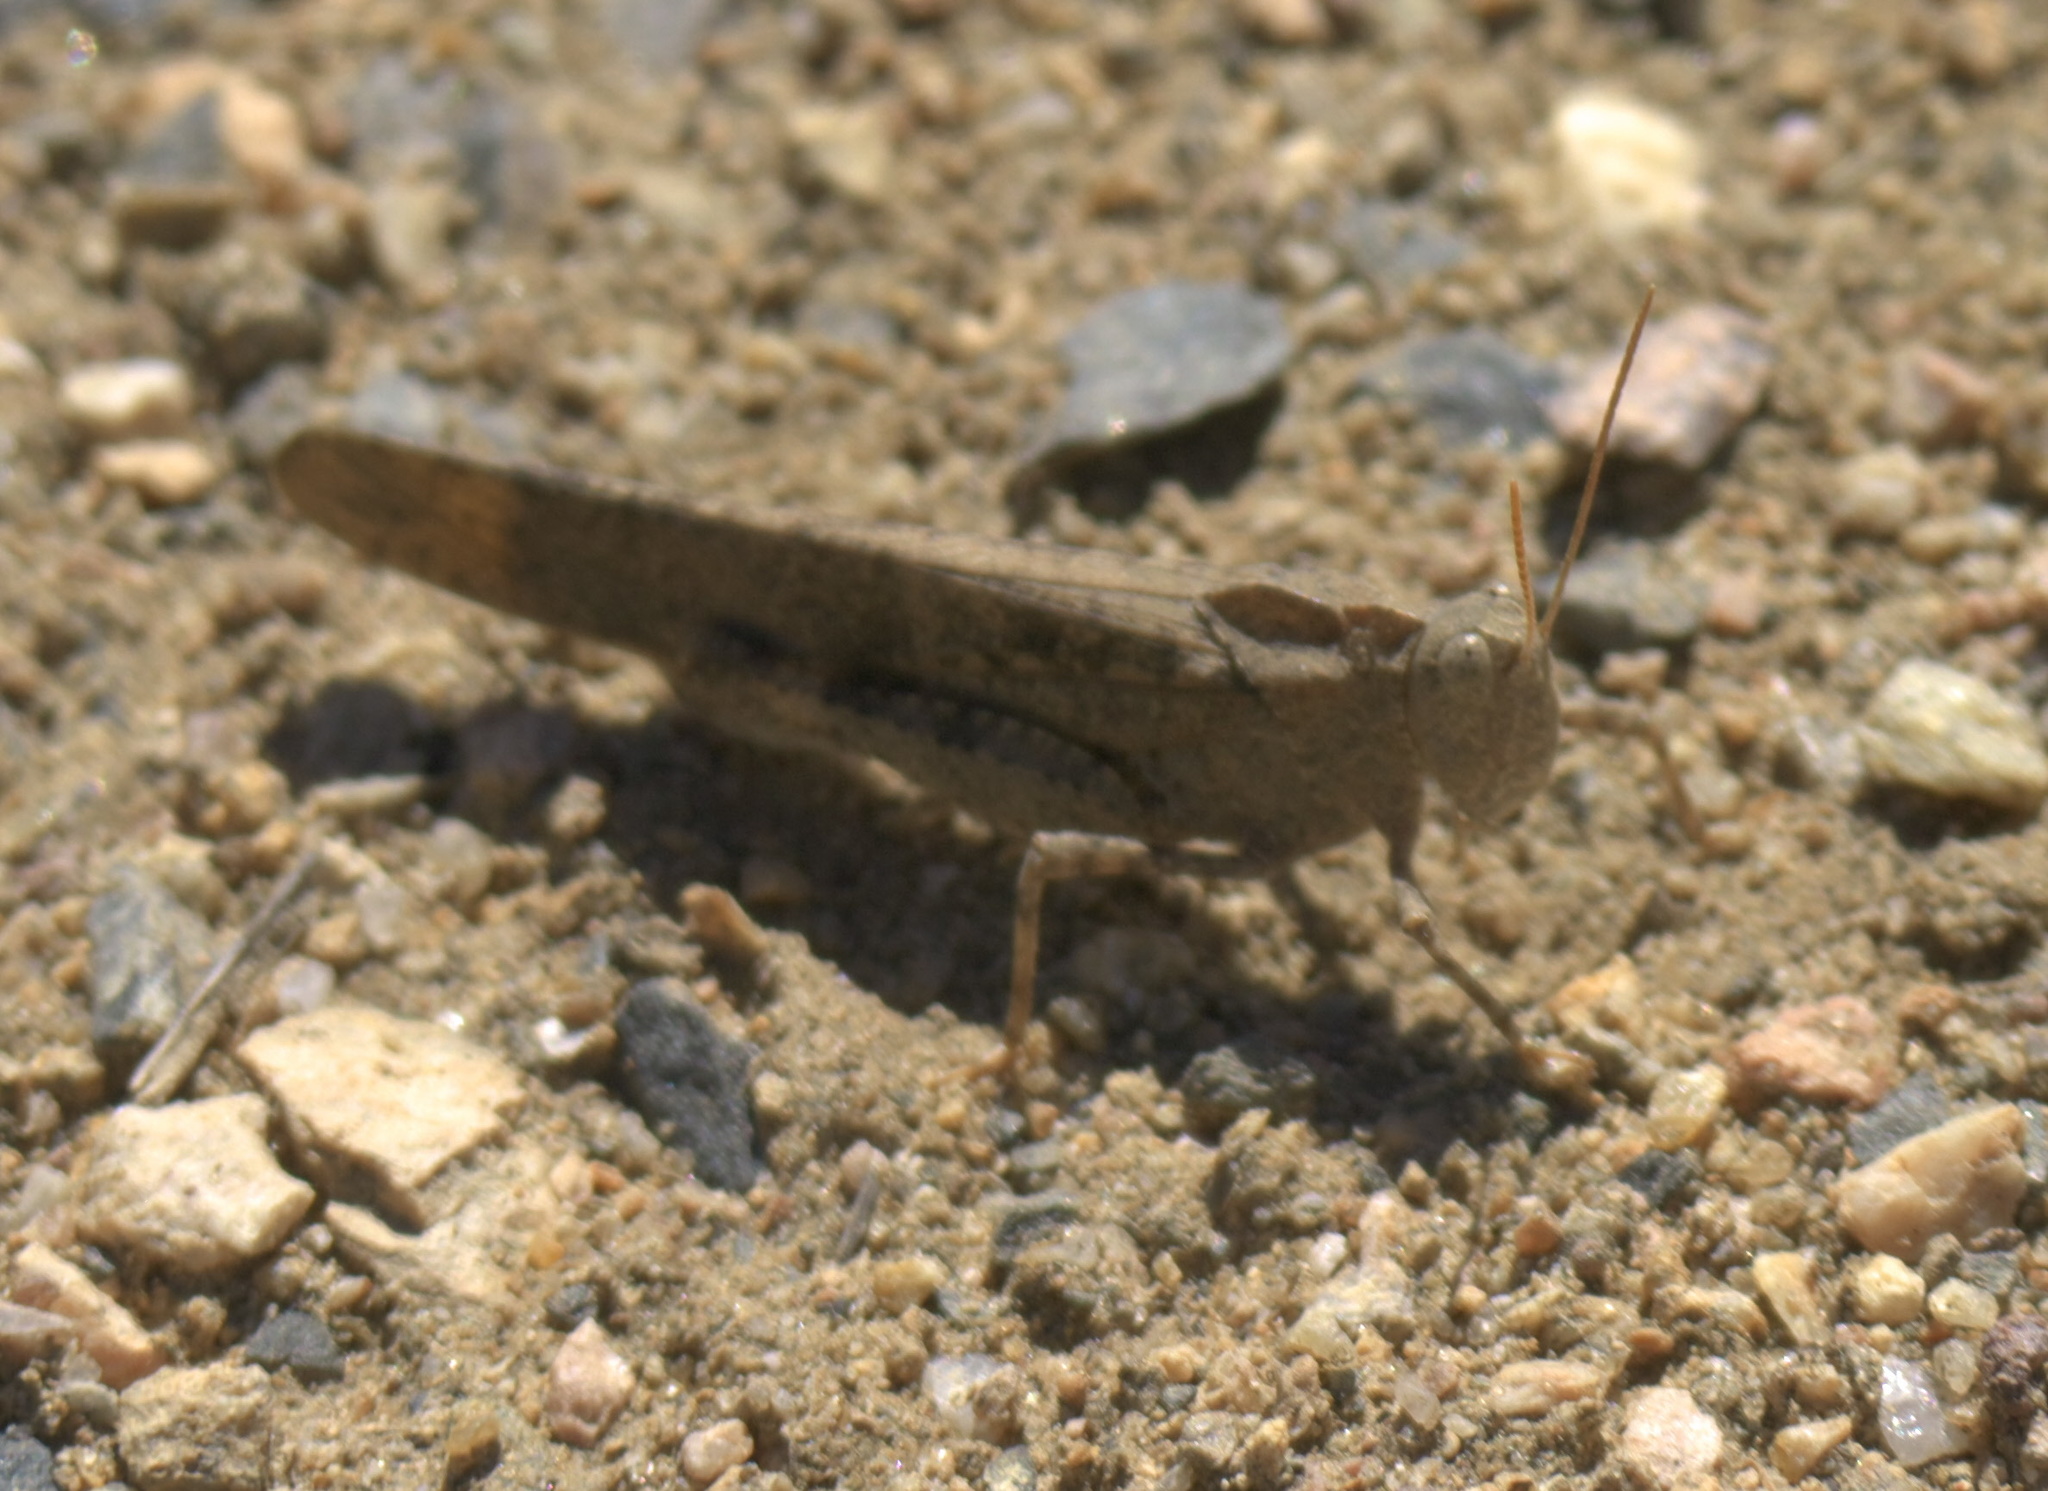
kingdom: Animalia
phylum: Arthropoda
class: Insecta
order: Orthoptera
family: Acrididae
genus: Dissosteira
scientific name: Dissosteira carolina
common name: Carolina grasshopper
